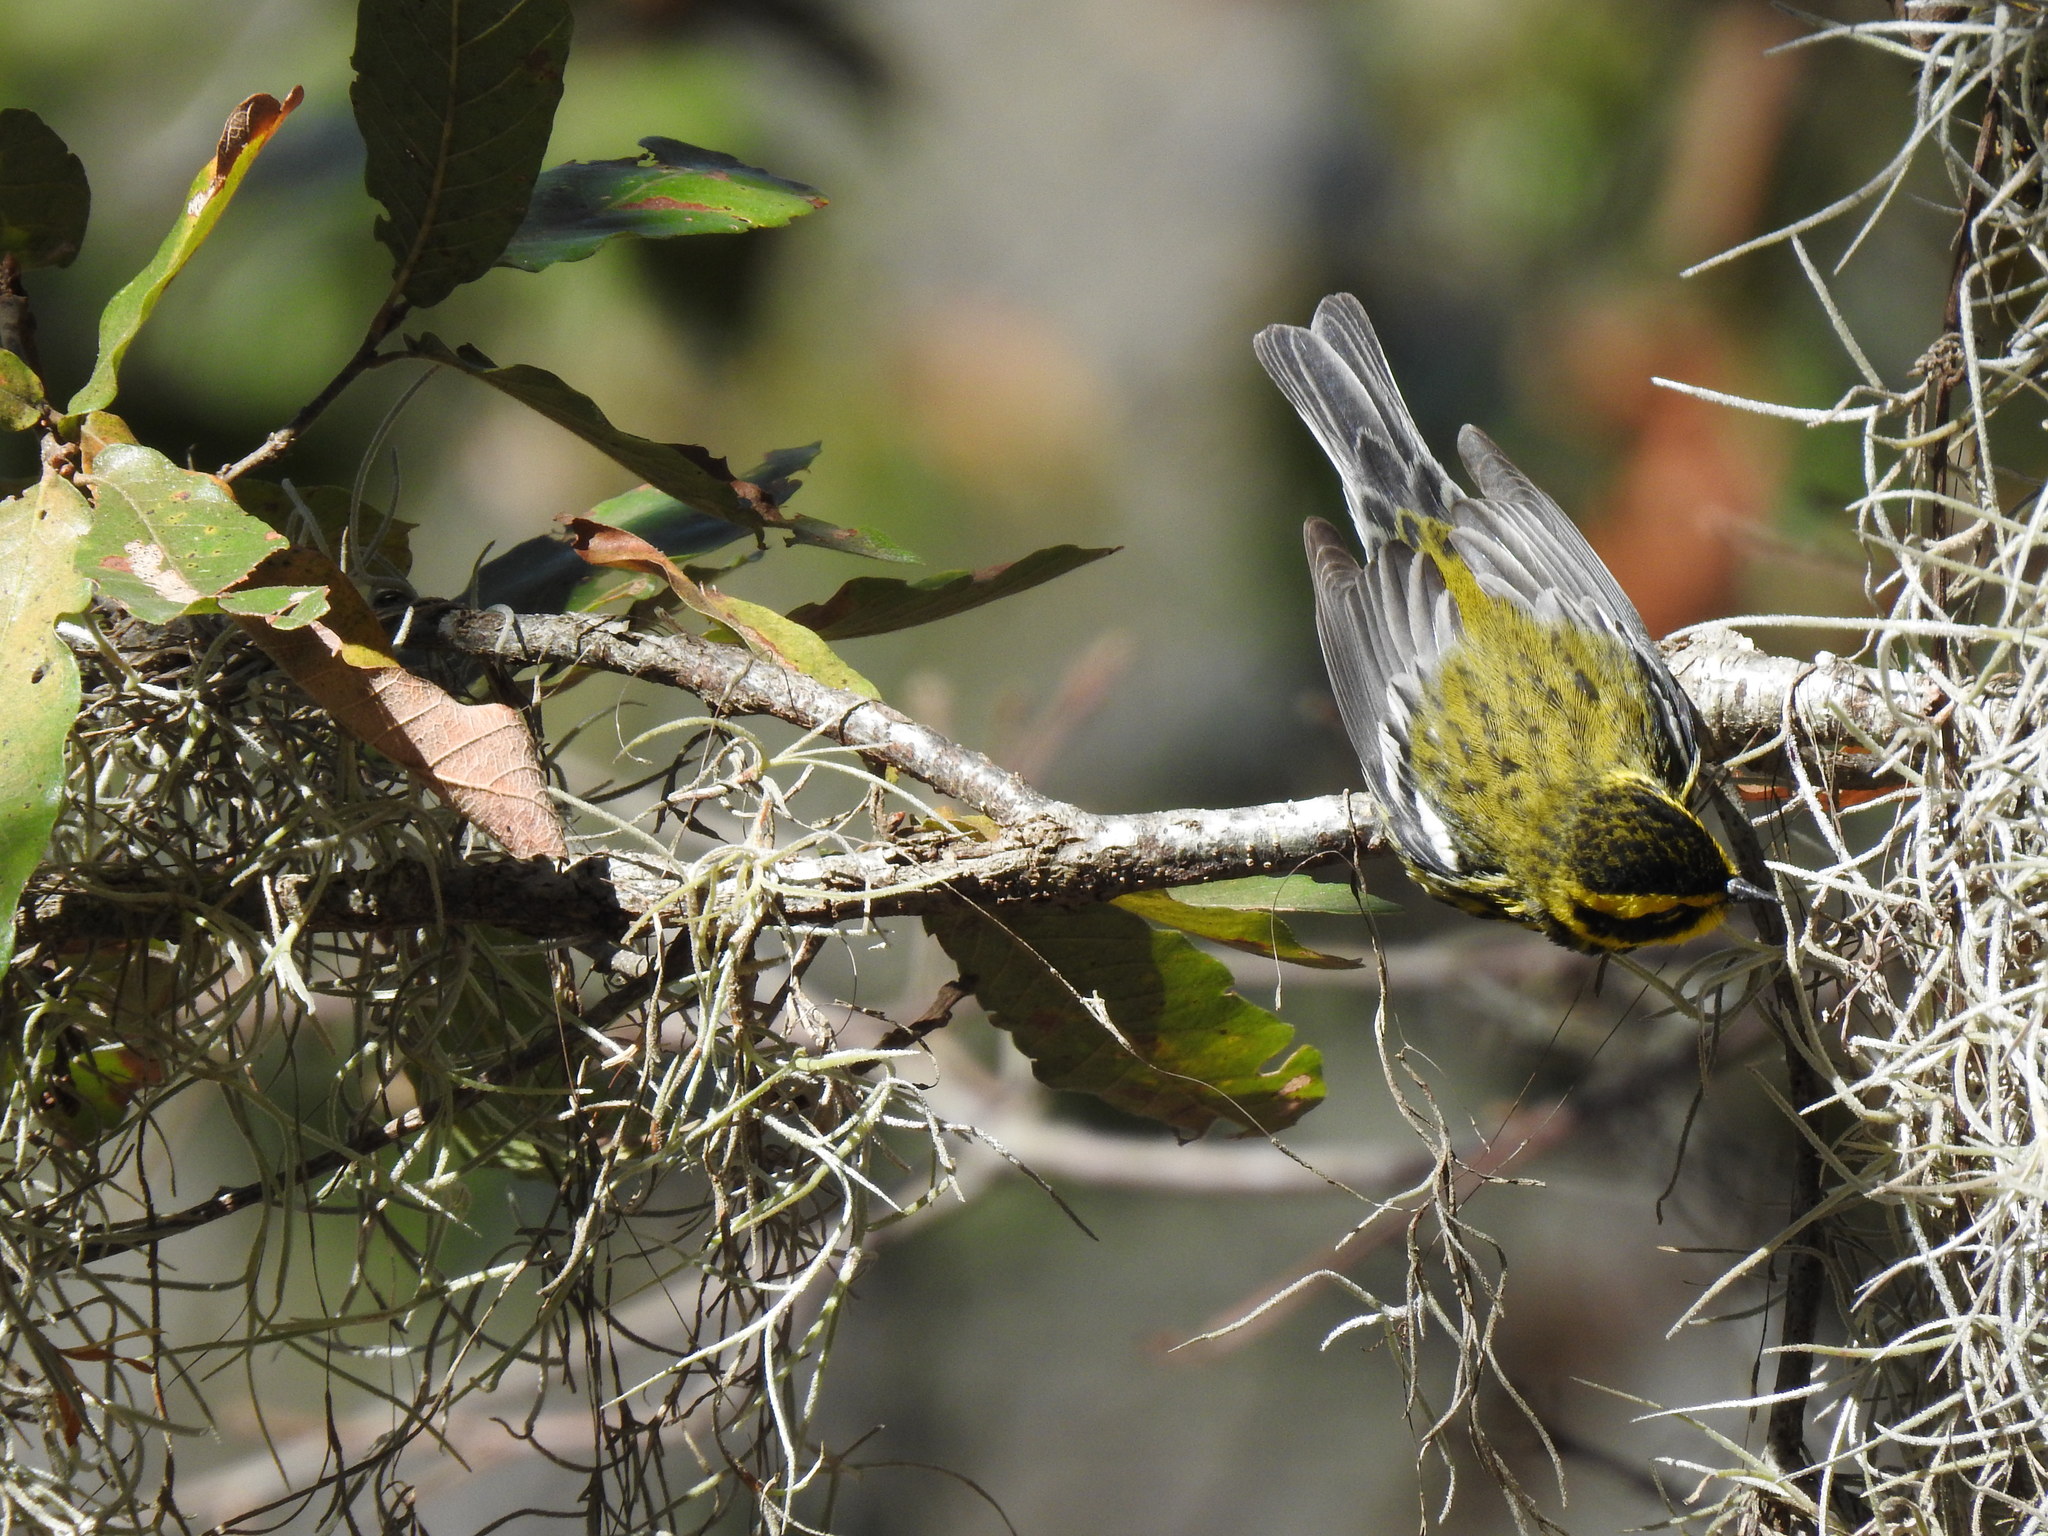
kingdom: Animalia
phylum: Chordata
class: Aves
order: Passeriformes
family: Parulidae
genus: Setophaga
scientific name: Setophaga townsendi
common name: Townsend's warbler
